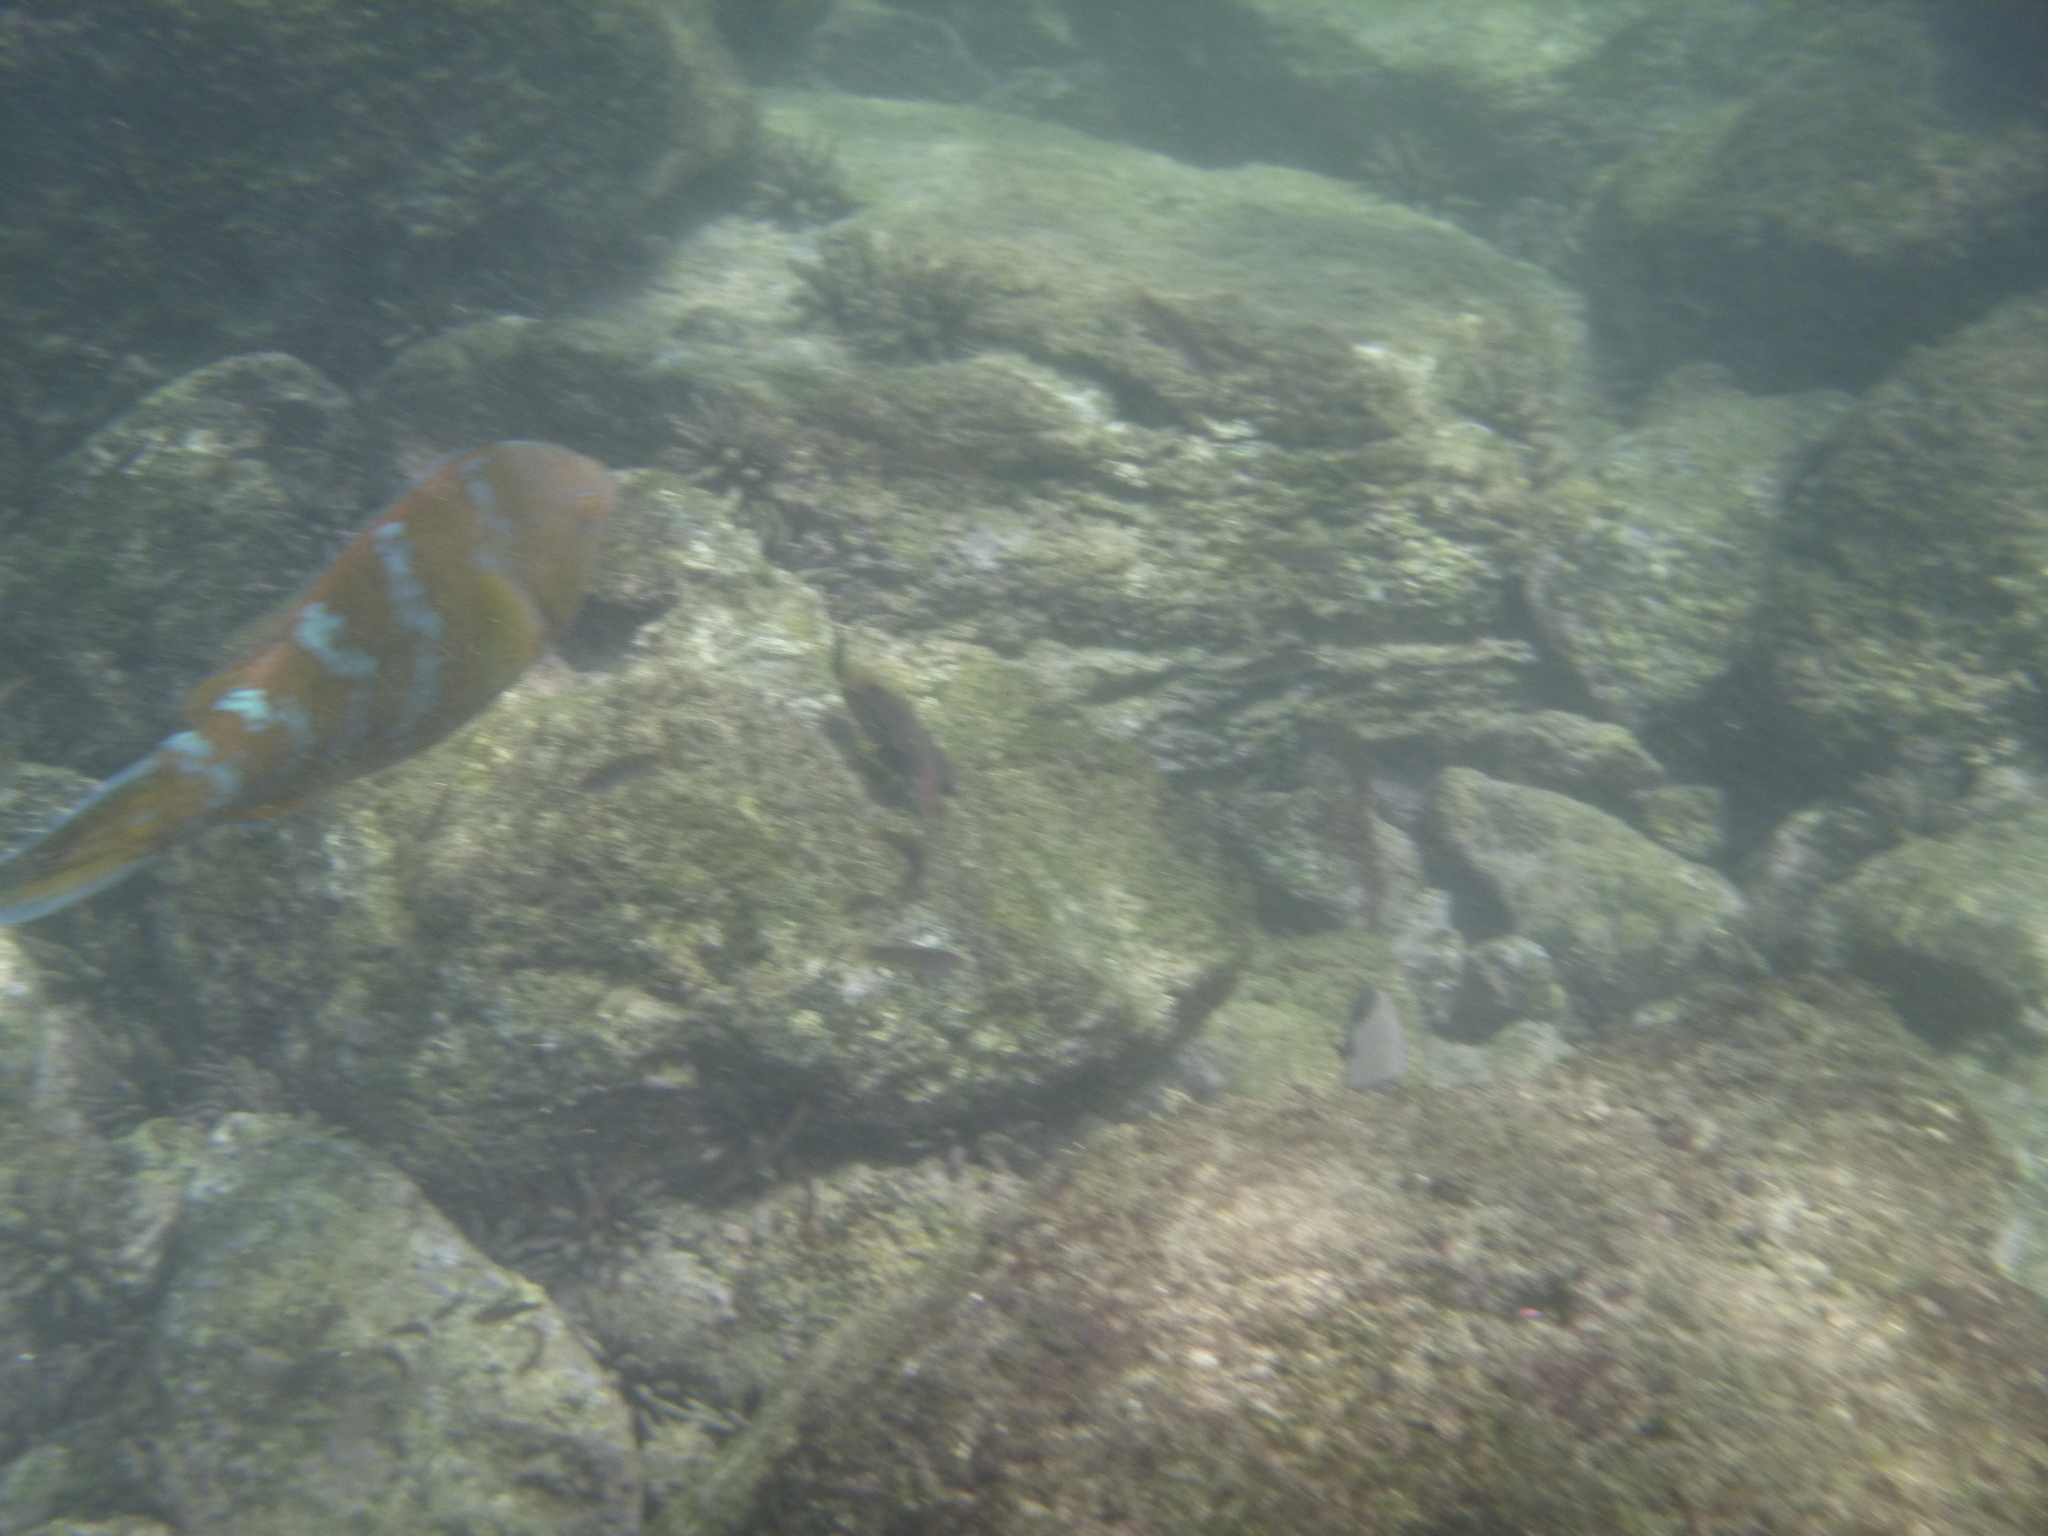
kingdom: Animalia
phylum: Chordata
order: Perciformes
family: Scaridae
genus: Scarus
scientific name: Scarus ghobban
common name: Blue-barred parrotfish
